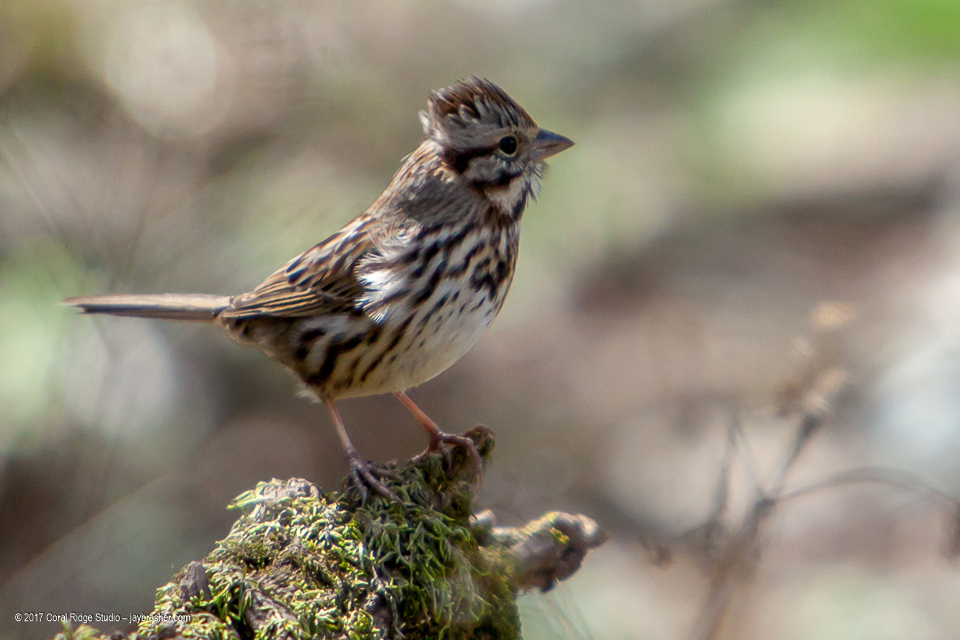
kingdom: Animalia
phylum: Chordata
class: Aves
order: Passeriformes
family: Passerellidae
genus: Melospiza
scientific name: Melospiza melodia
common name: Song sparrow
